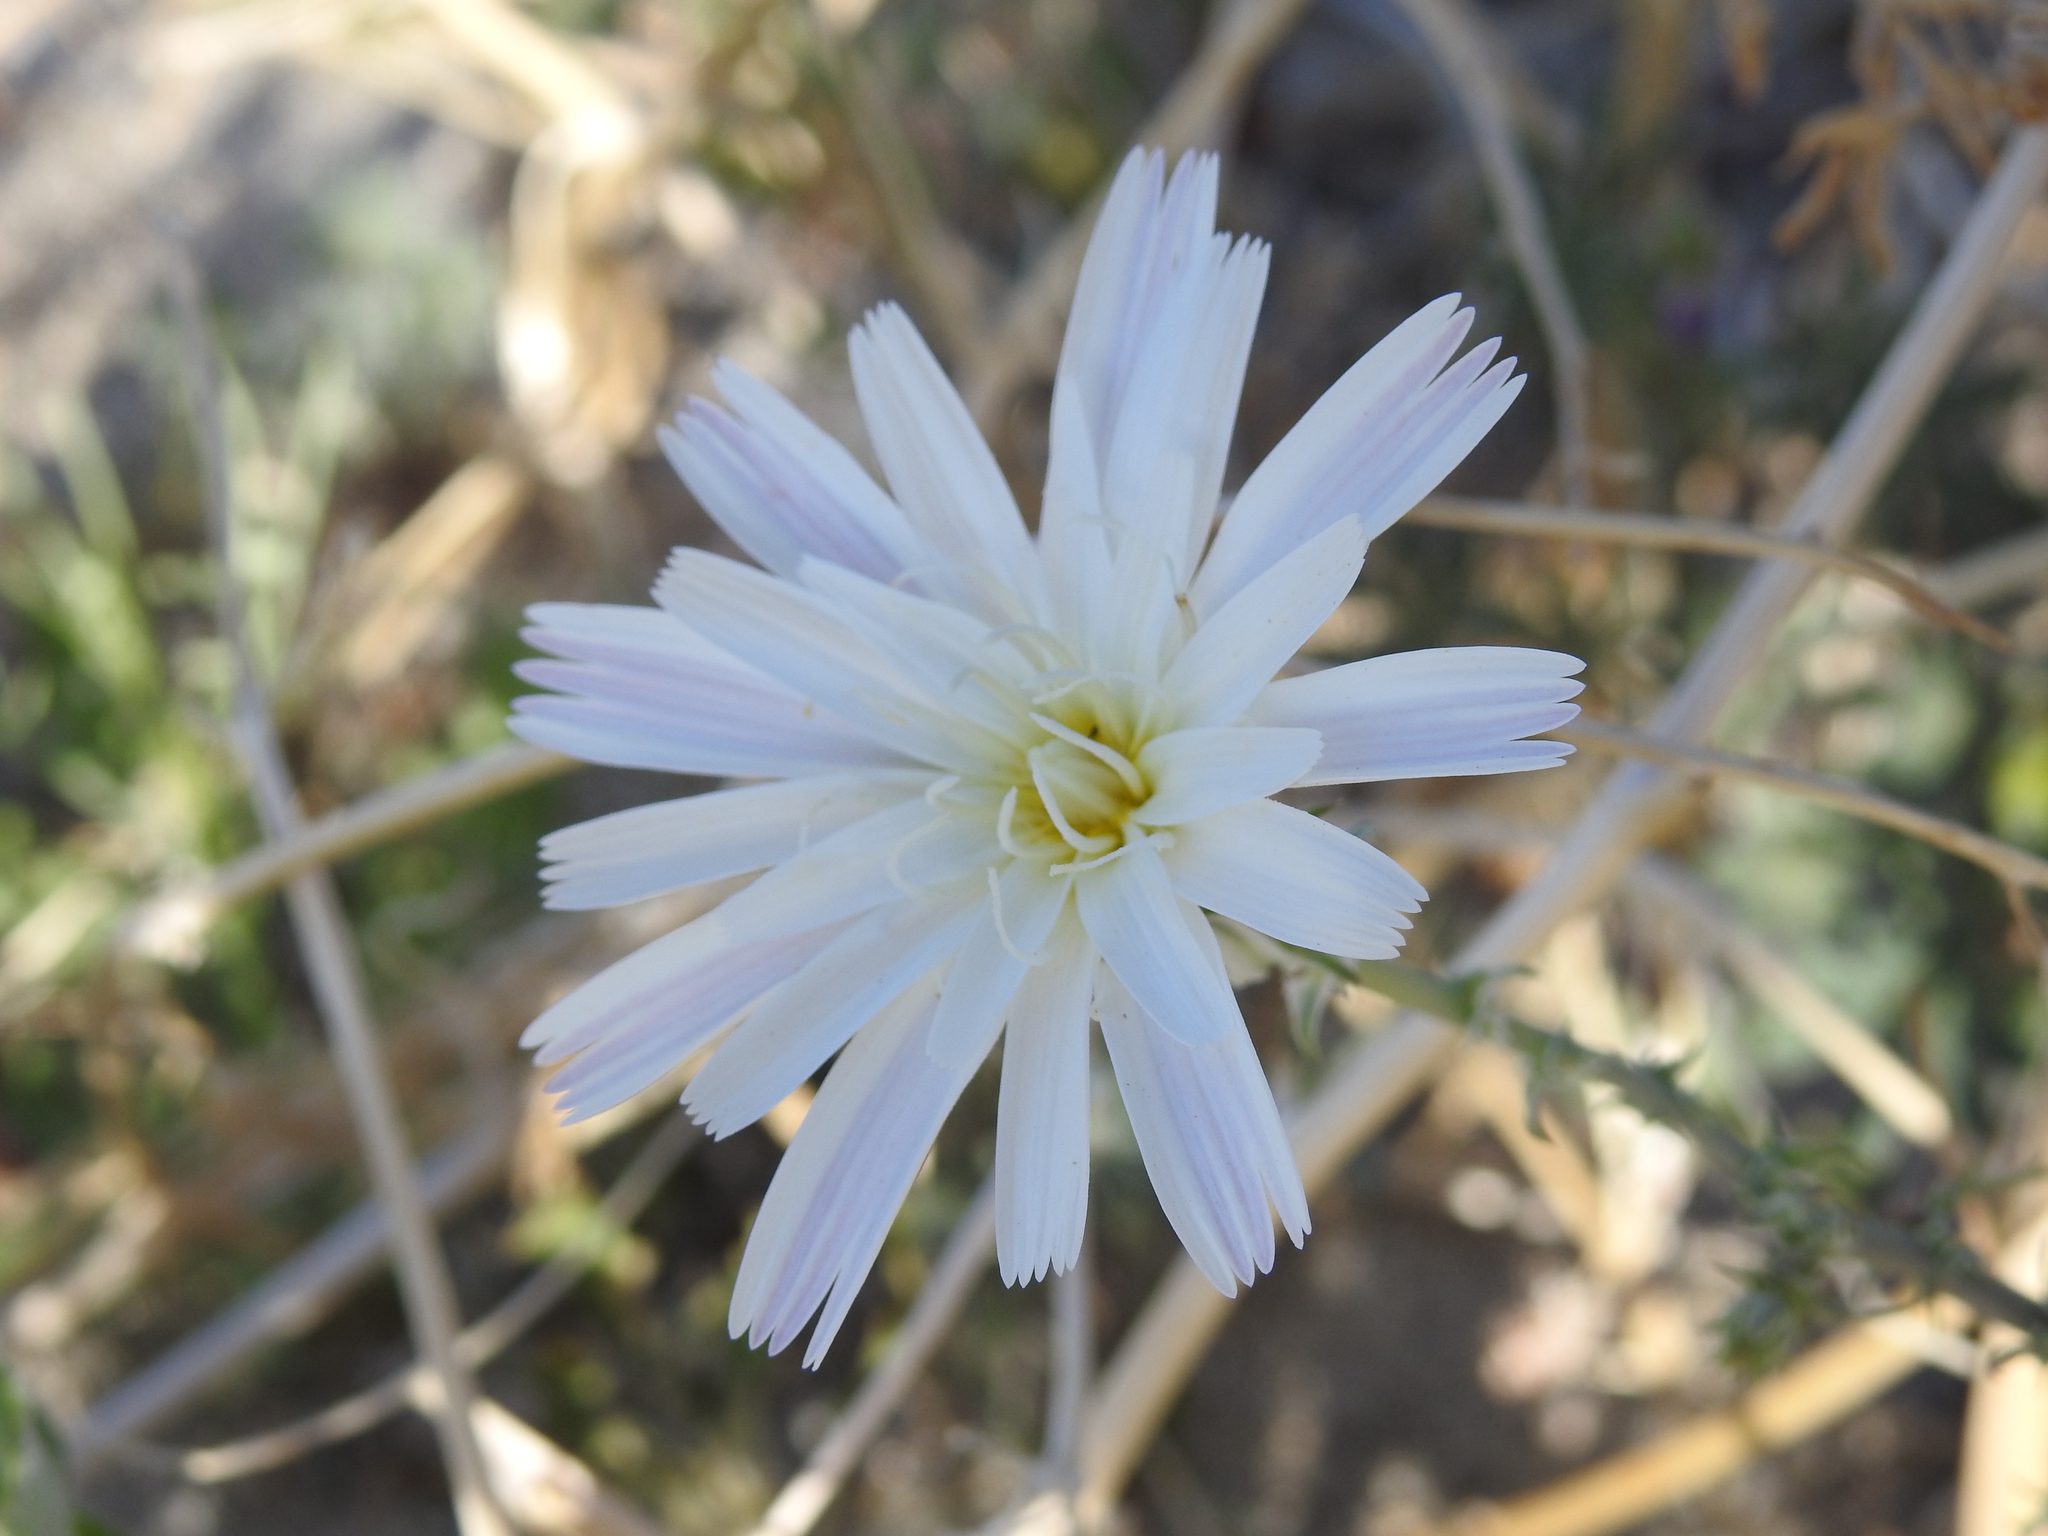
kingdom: Plantae
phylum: Tracheophyta
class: Magnoliopsida
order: Asterales
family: Asteraceae
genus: Rafinesquia
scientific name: Rafinesquia neomexicana
